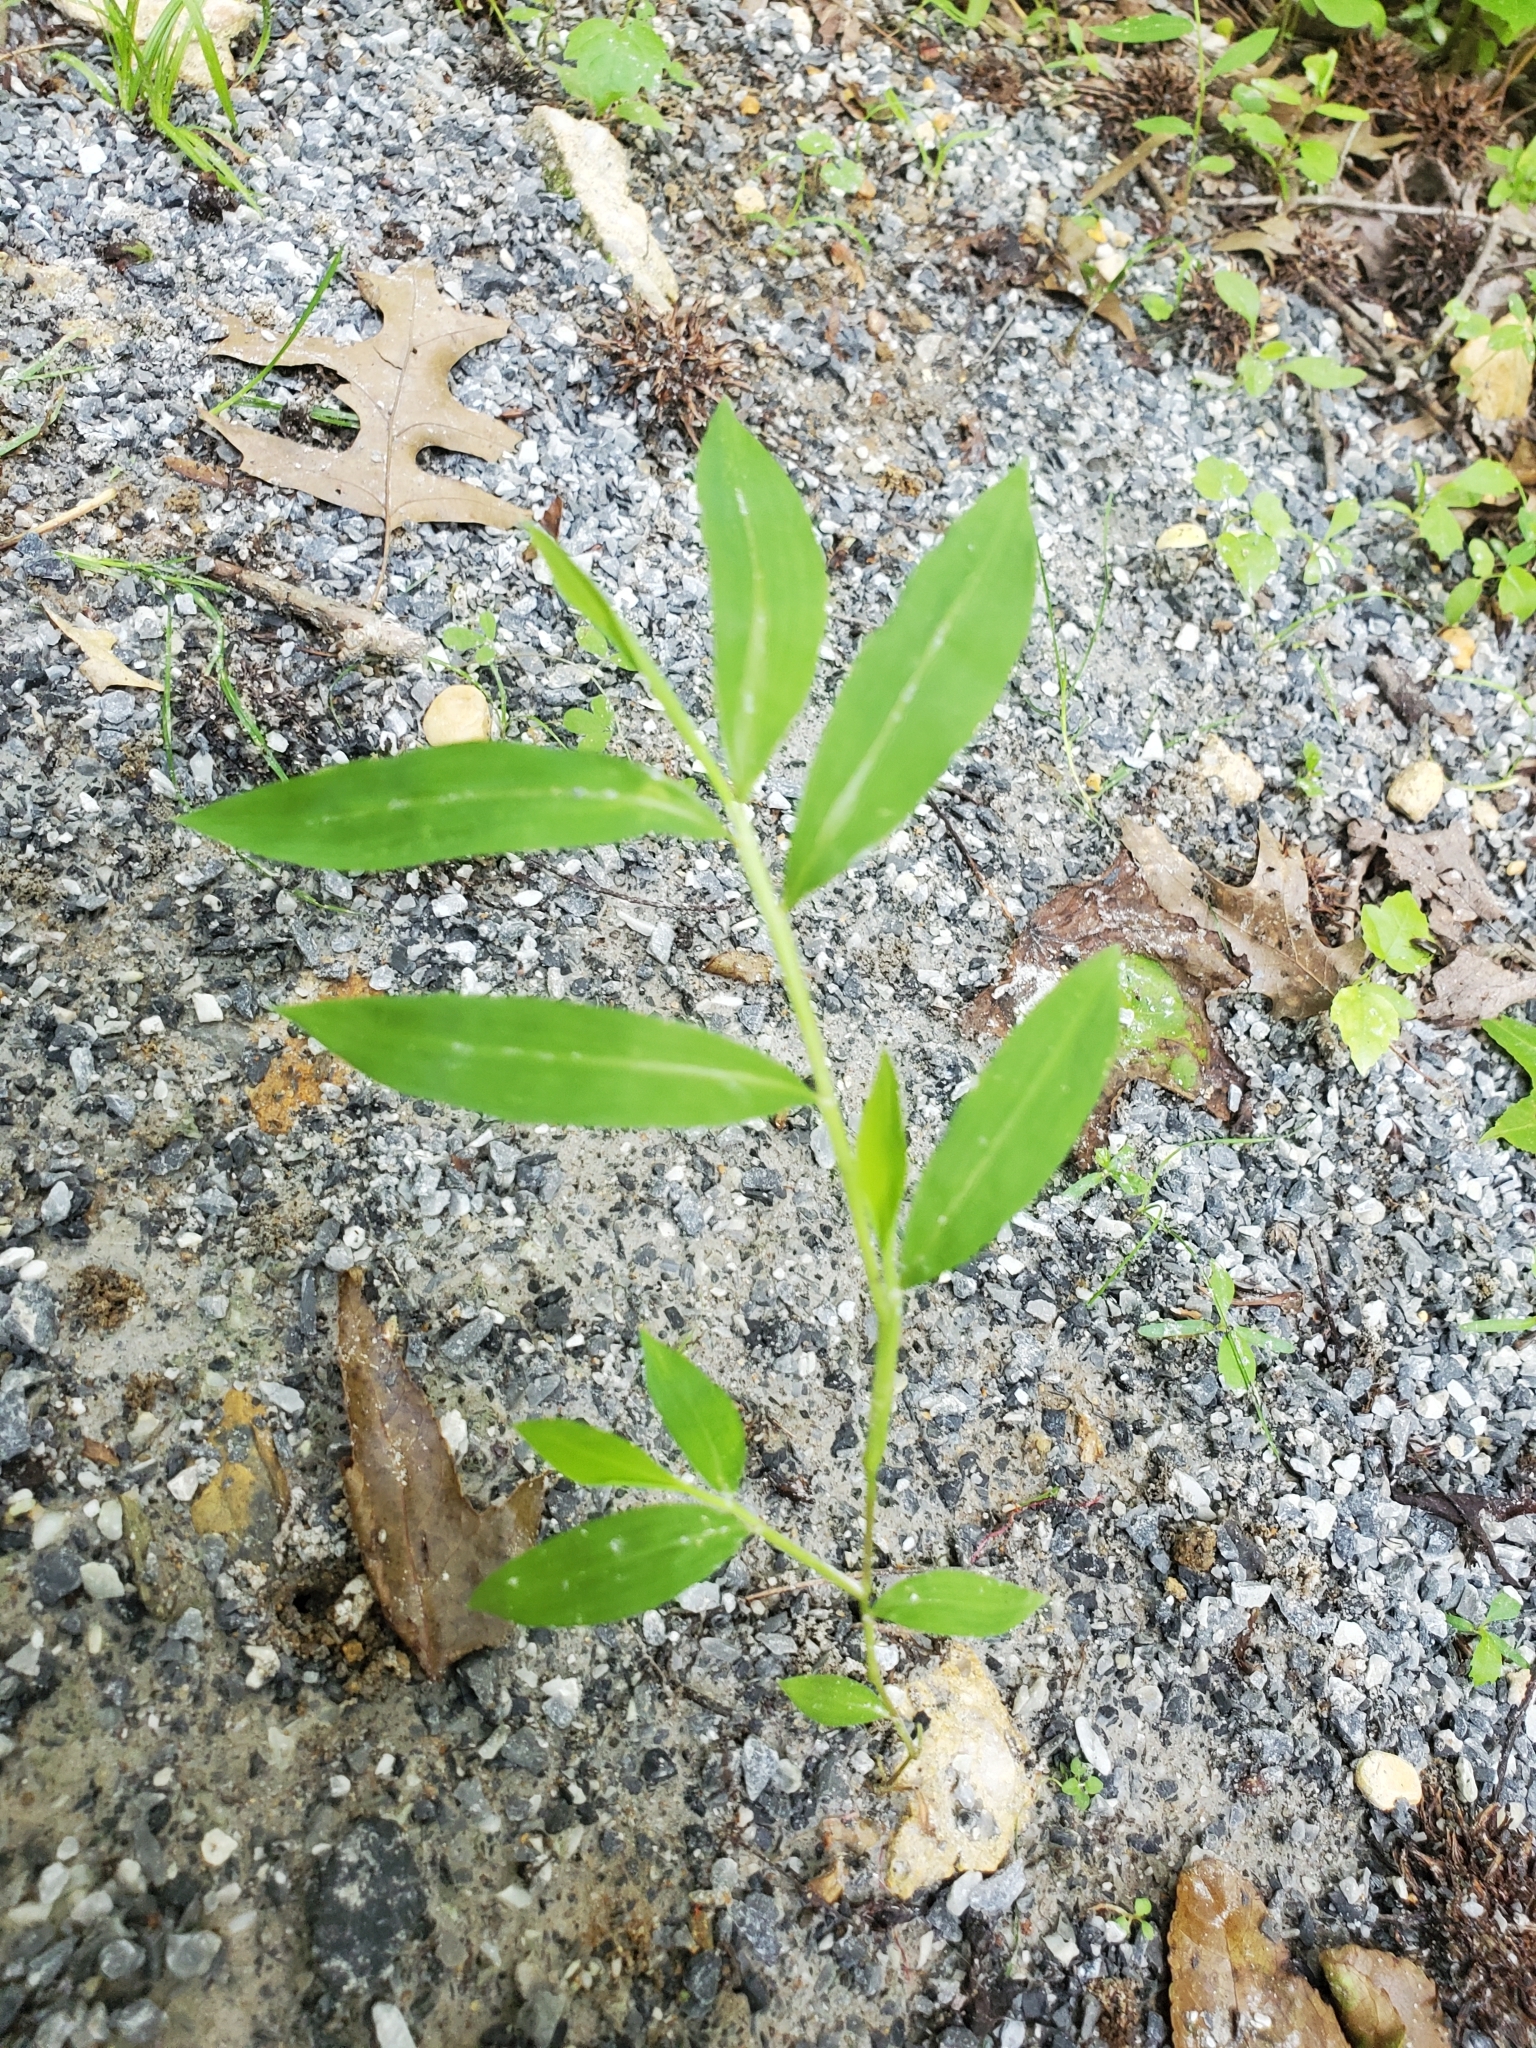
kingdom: Plantae
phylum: Tracheophyta
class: Liliopsida
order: Poales
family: Poaceae
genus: Microstegium
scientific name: Microstegium vimineum
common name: Japanese stiltgrass
